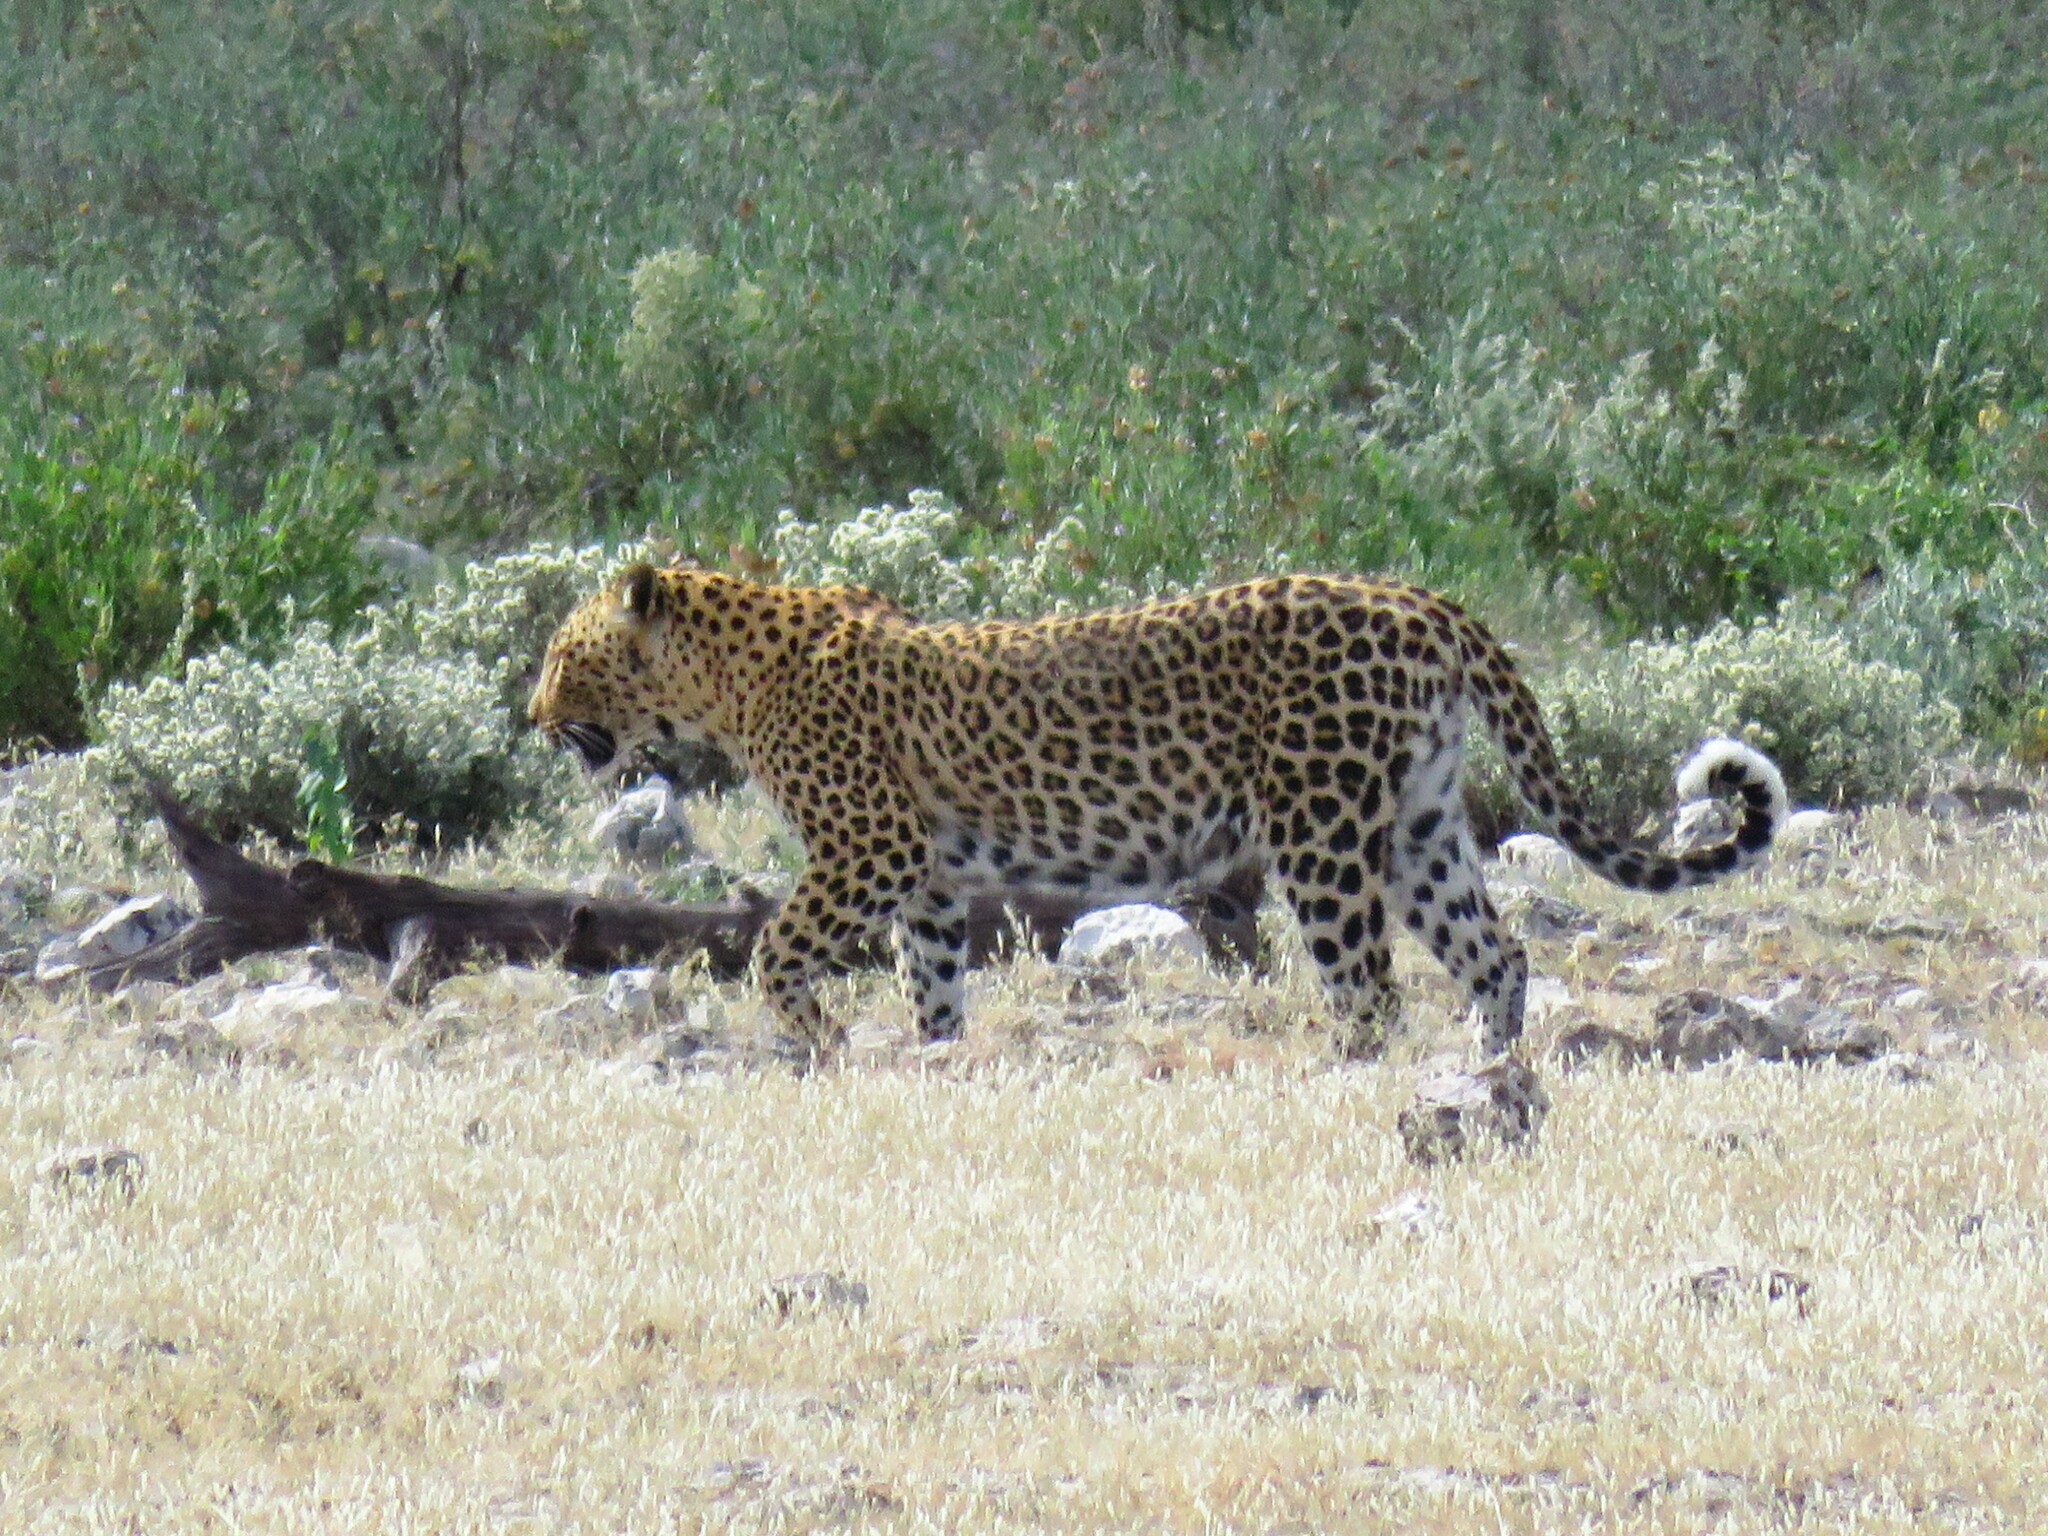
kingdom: Animalia
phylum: Chordata
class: Mammalia
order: Carnivora
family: Felidae
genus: Panthera
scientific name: Panthera pardus
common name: Leopard
